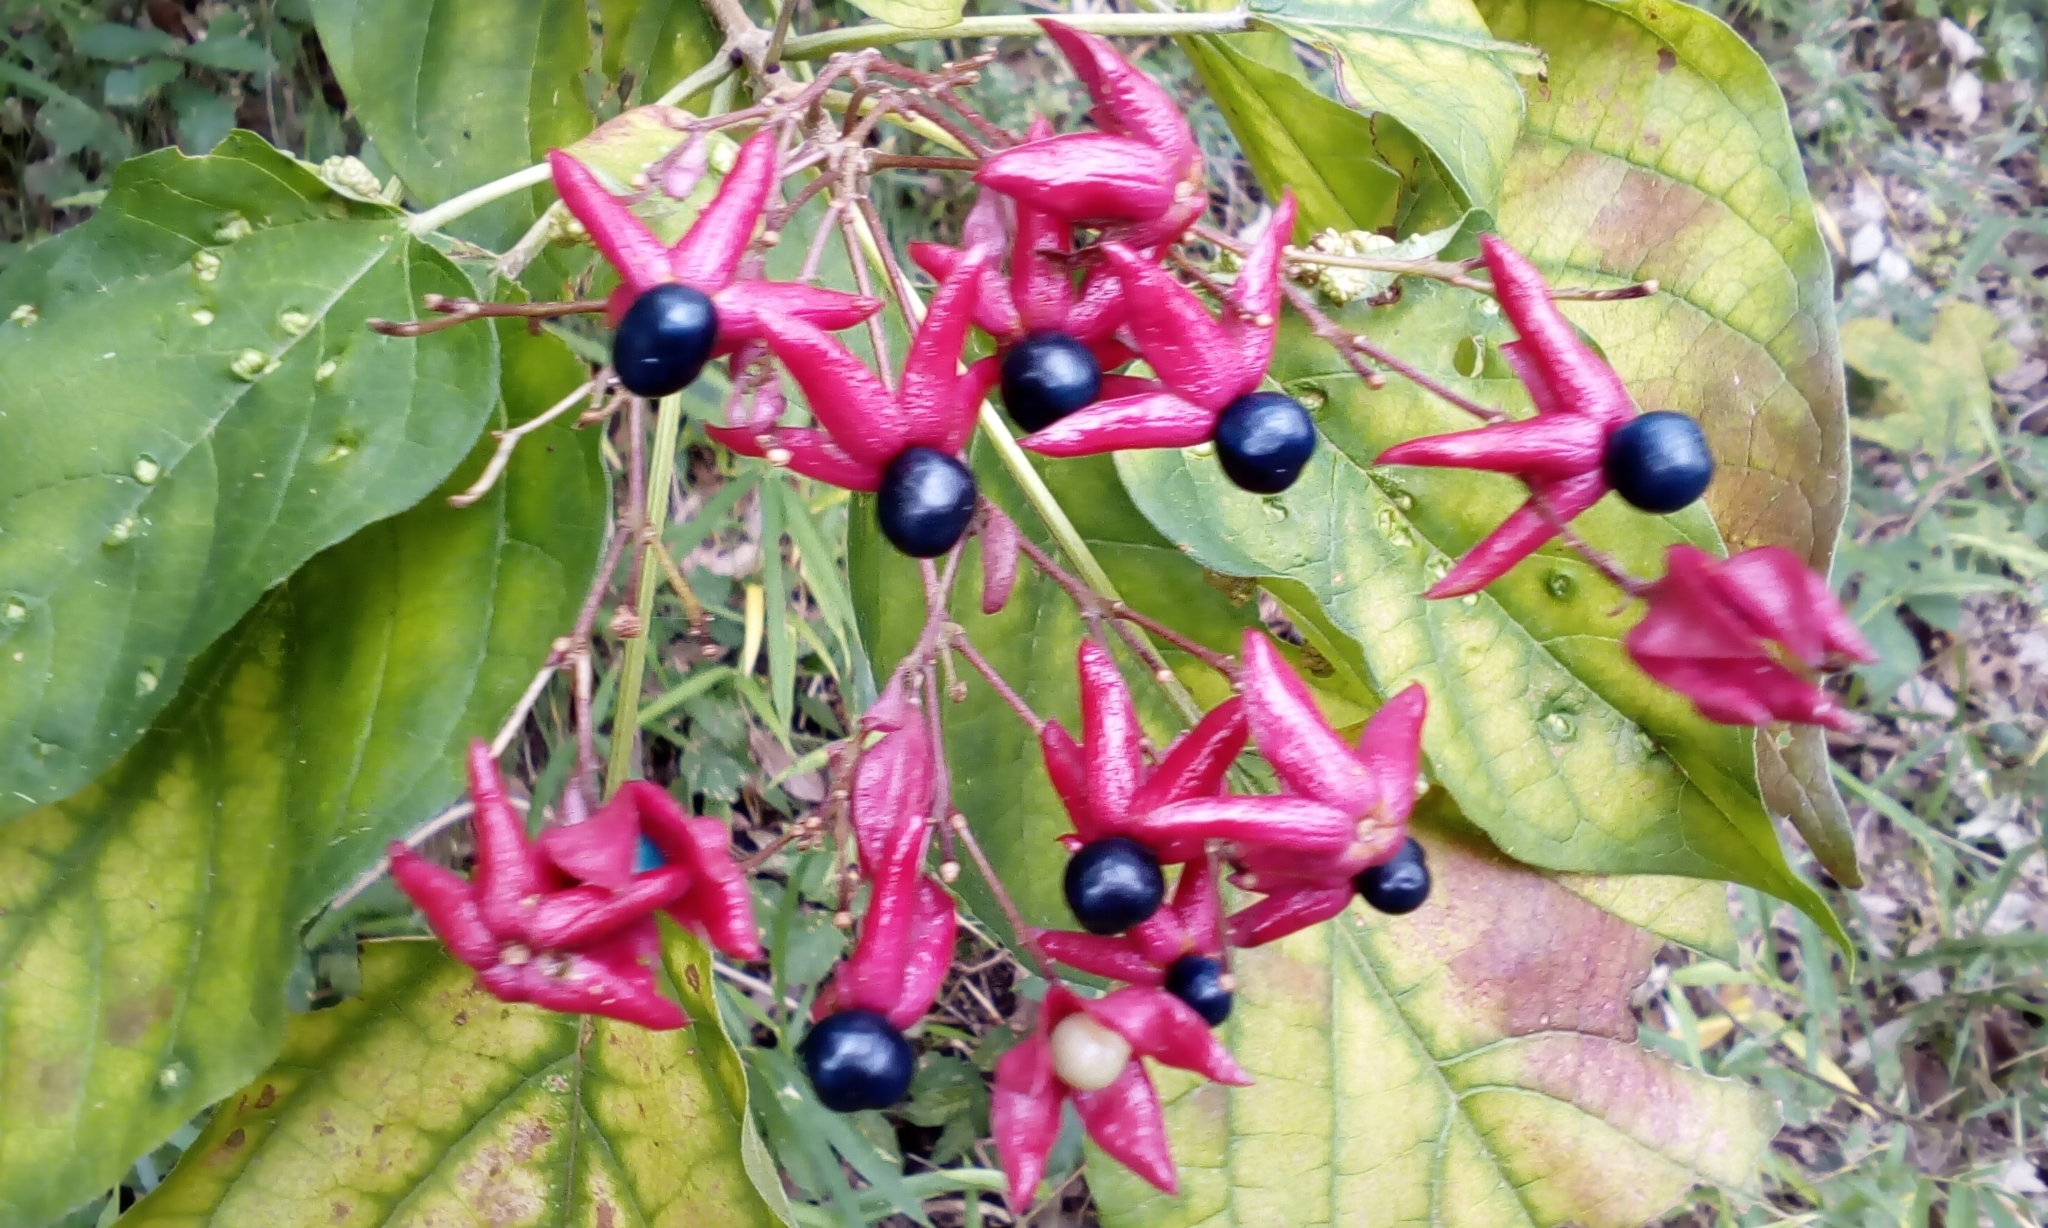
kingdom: Plantae
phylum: Tracheophyta
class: Magnoliopsida
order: Lamiales
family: Lamiaceae
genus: Clerodendrum
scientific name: Clerodendrum trichotomum
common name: Harlequin glorybower
